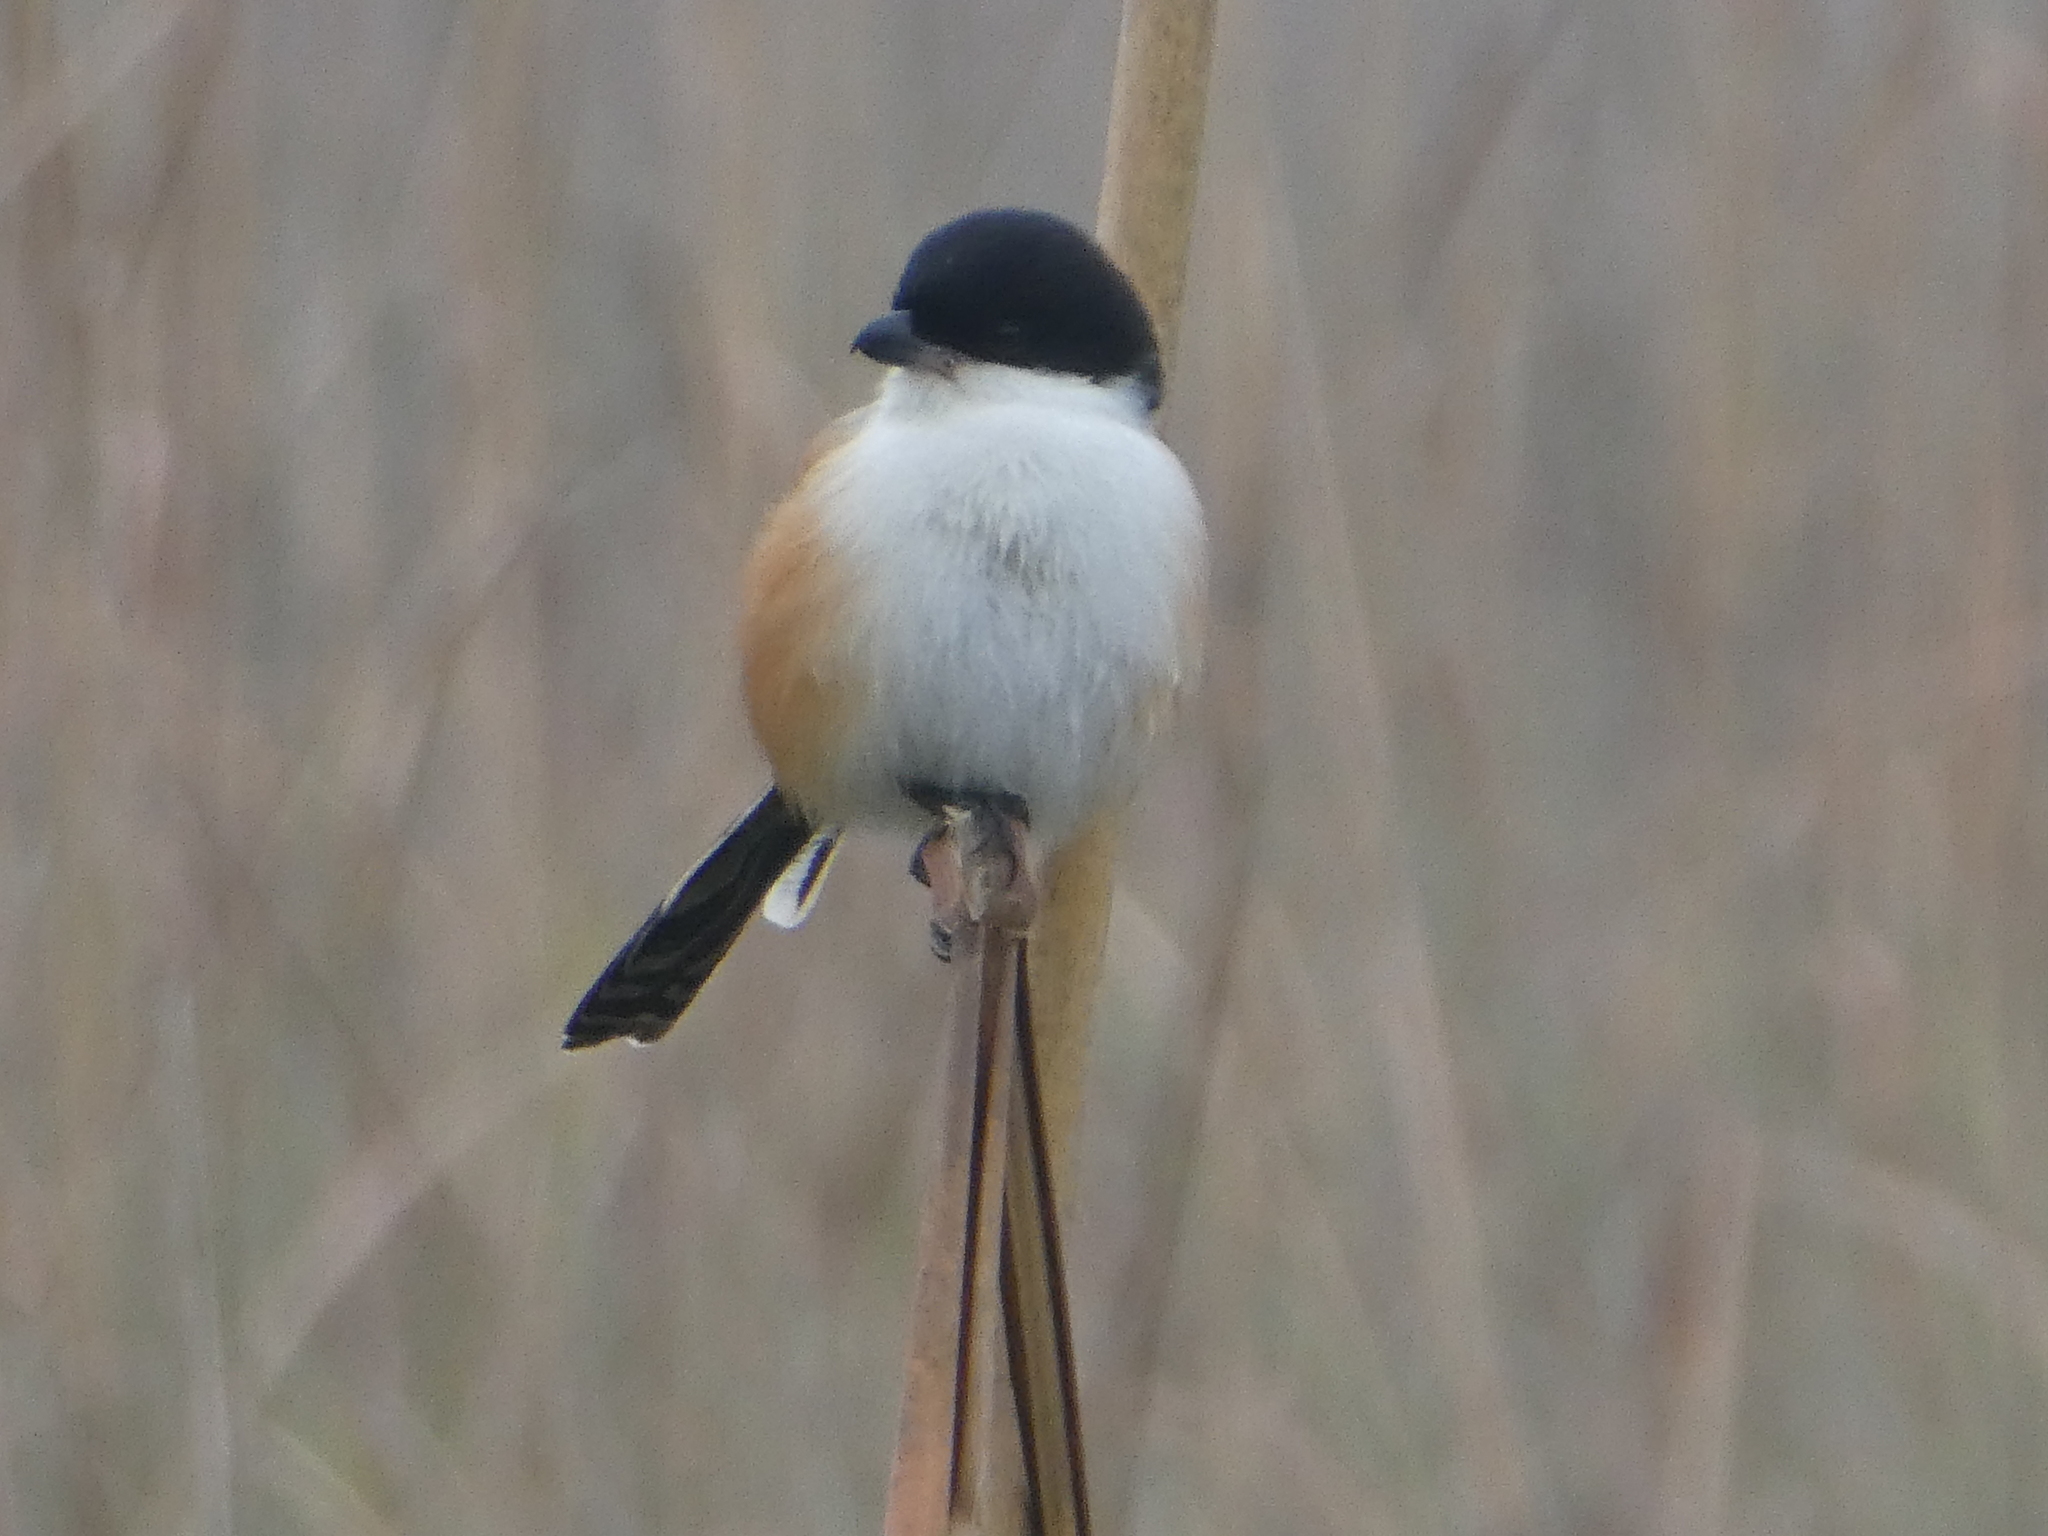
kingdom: Animalia
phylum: Chordata
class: Aves
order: Passeriformes
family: Laniidae
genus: Lanius
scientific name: Lanius schach
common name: Long-tailed shrike
